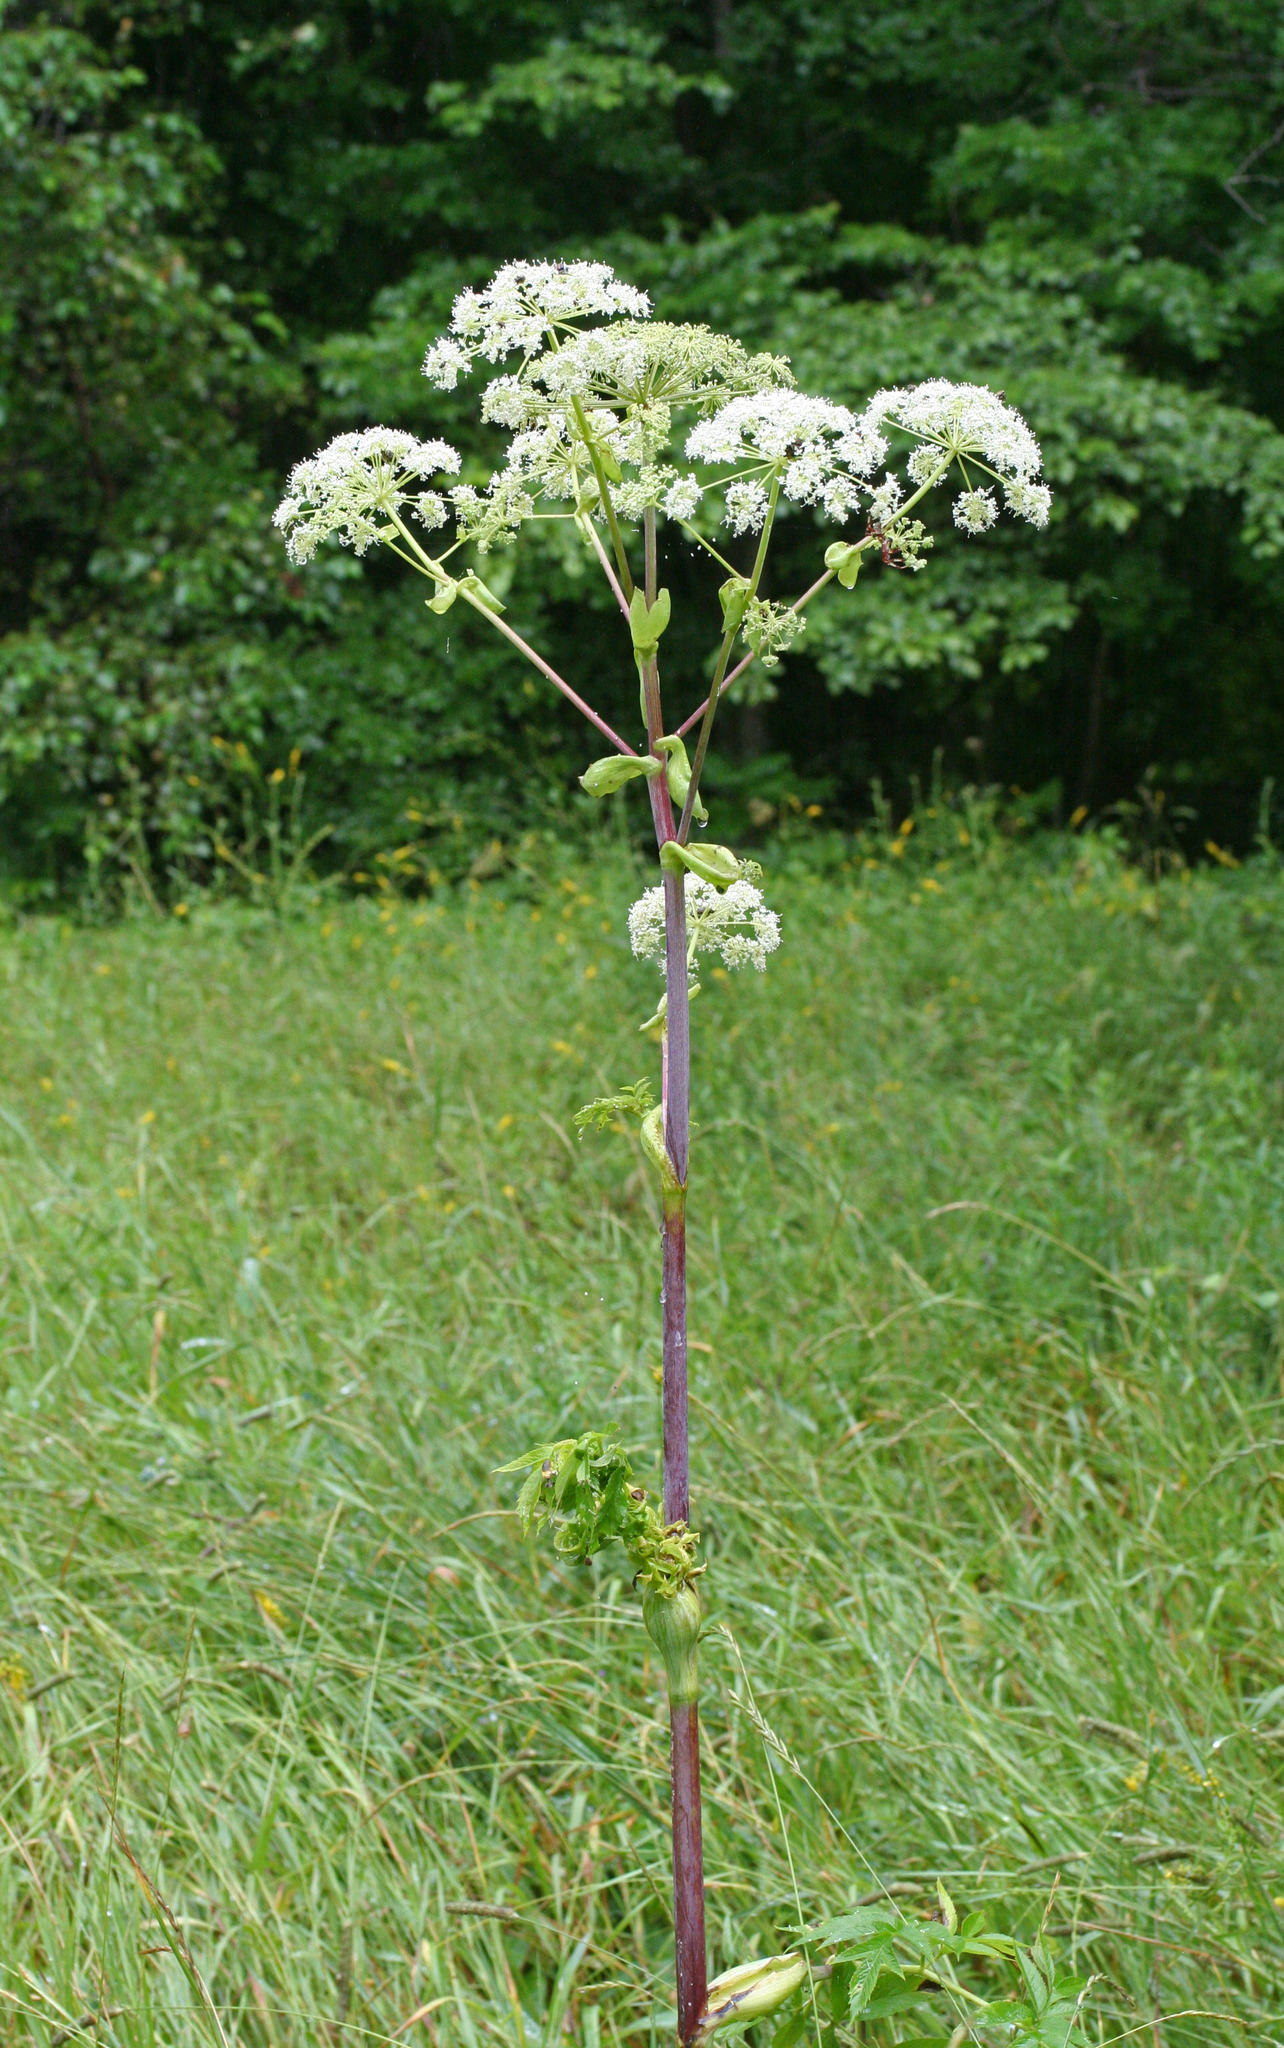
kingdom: Plantae
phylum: Tracheophyta
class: Magnoliopsida
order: Apiales
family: Apiaceae
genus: Angelica
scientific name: Angelica dahurica
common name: Dahurian angelica
